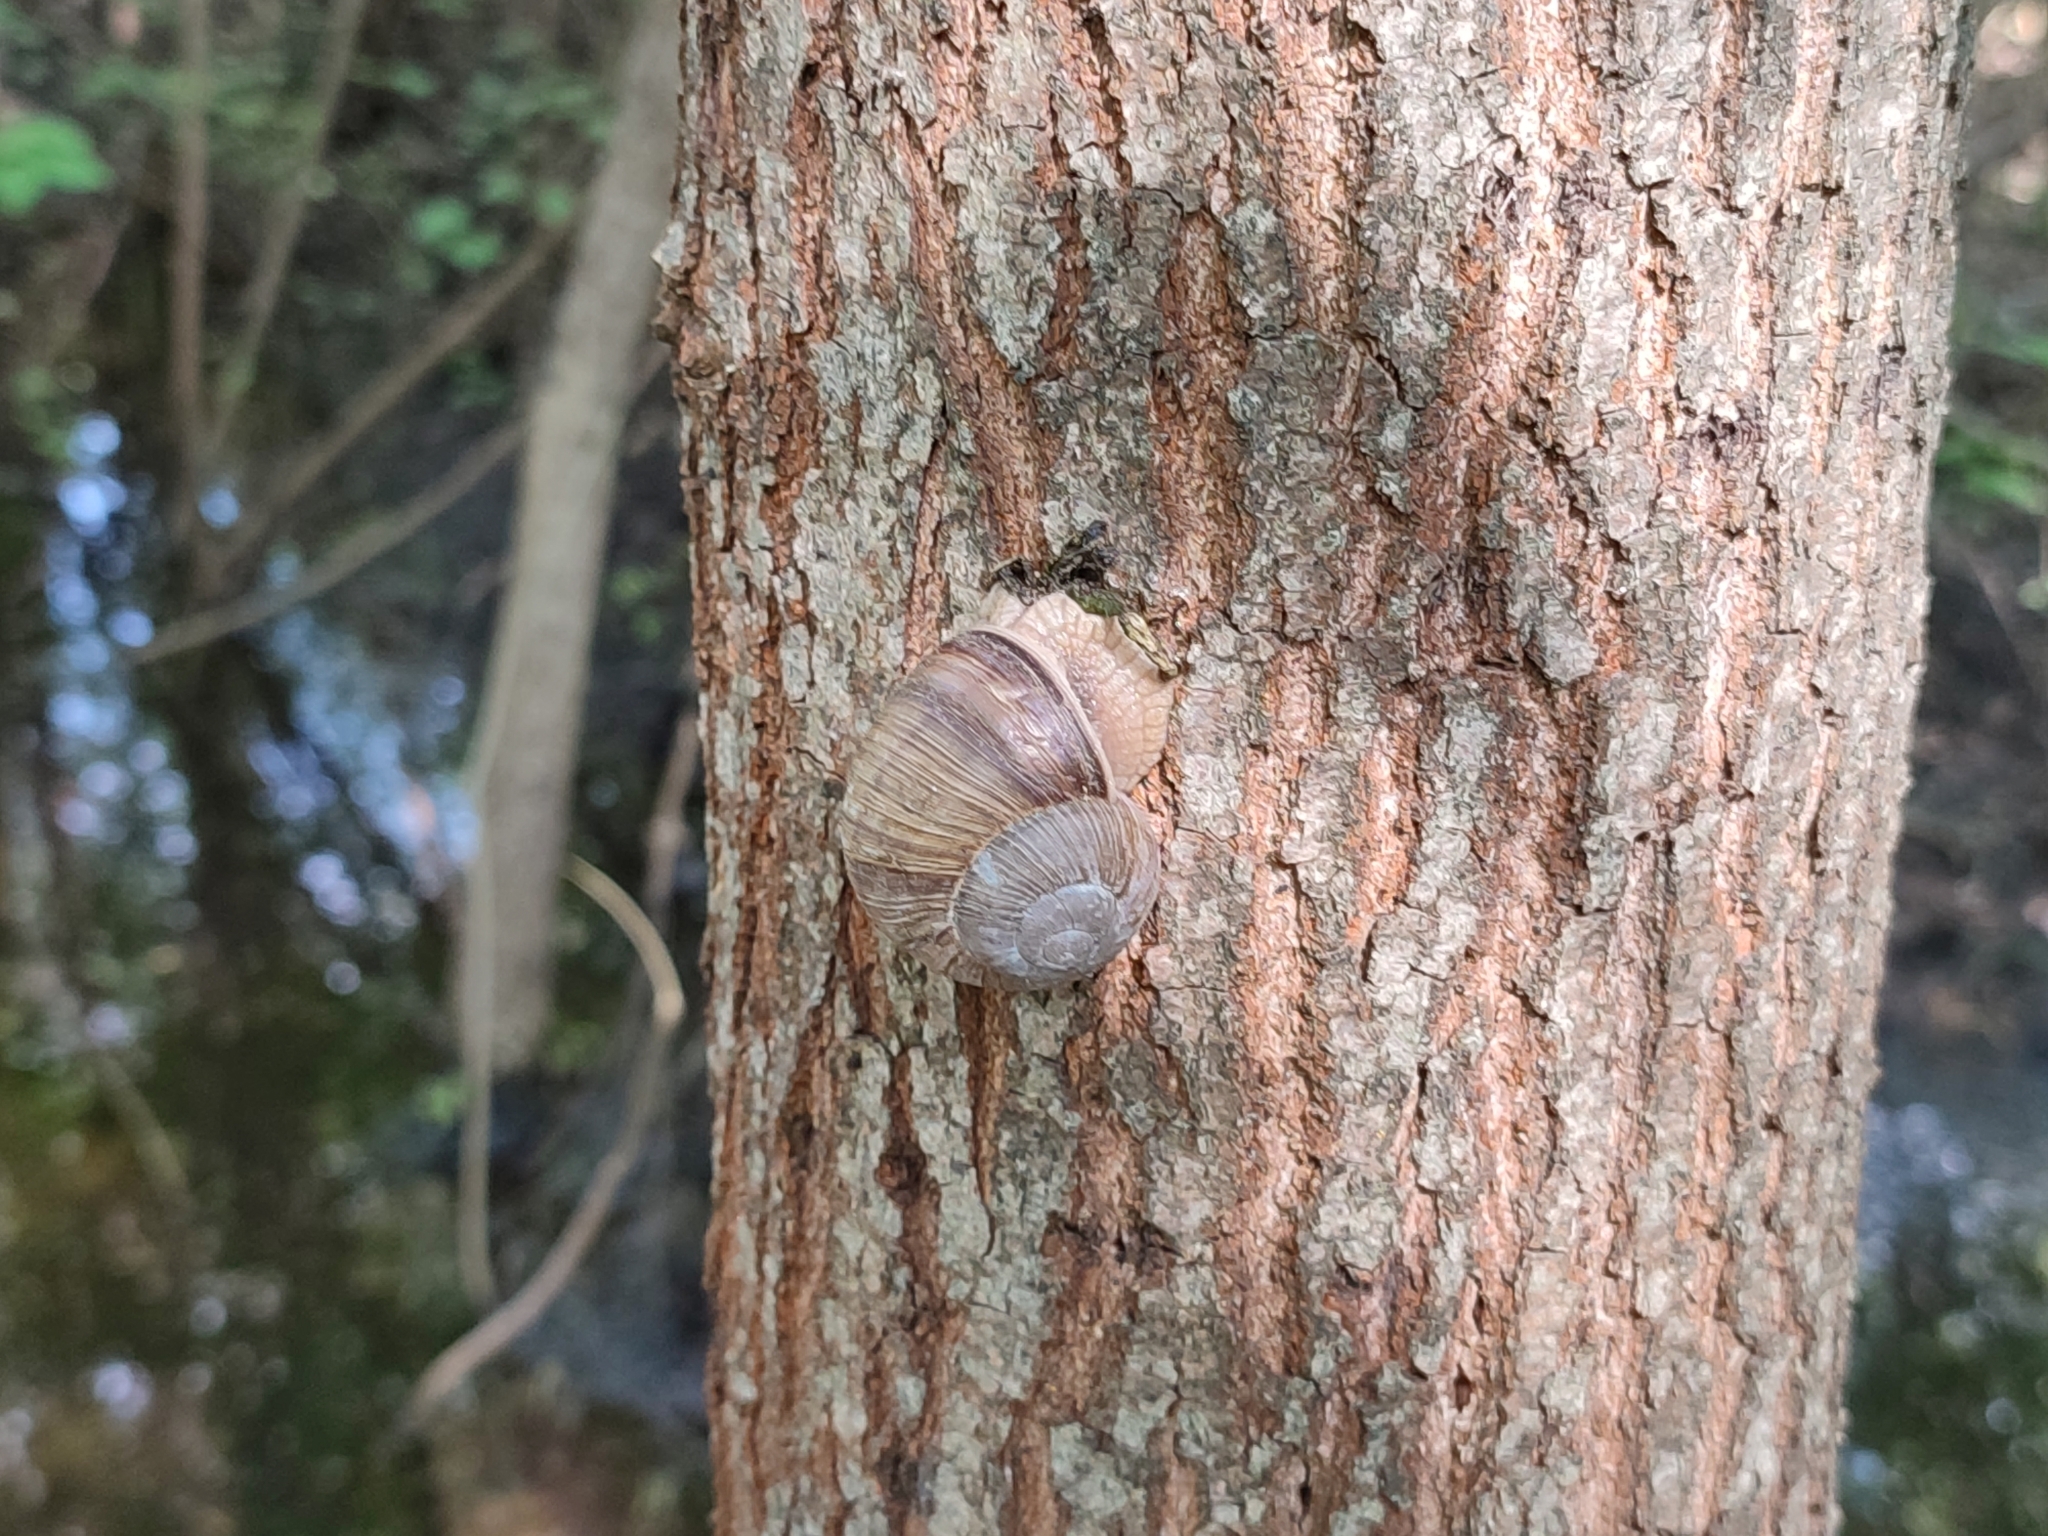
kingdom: Animalia
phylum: Mollusca
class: Gastropoda
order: Stylommatophora
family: Helicidae
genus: Helix
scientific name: Helix pomatia
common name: Roman snail
